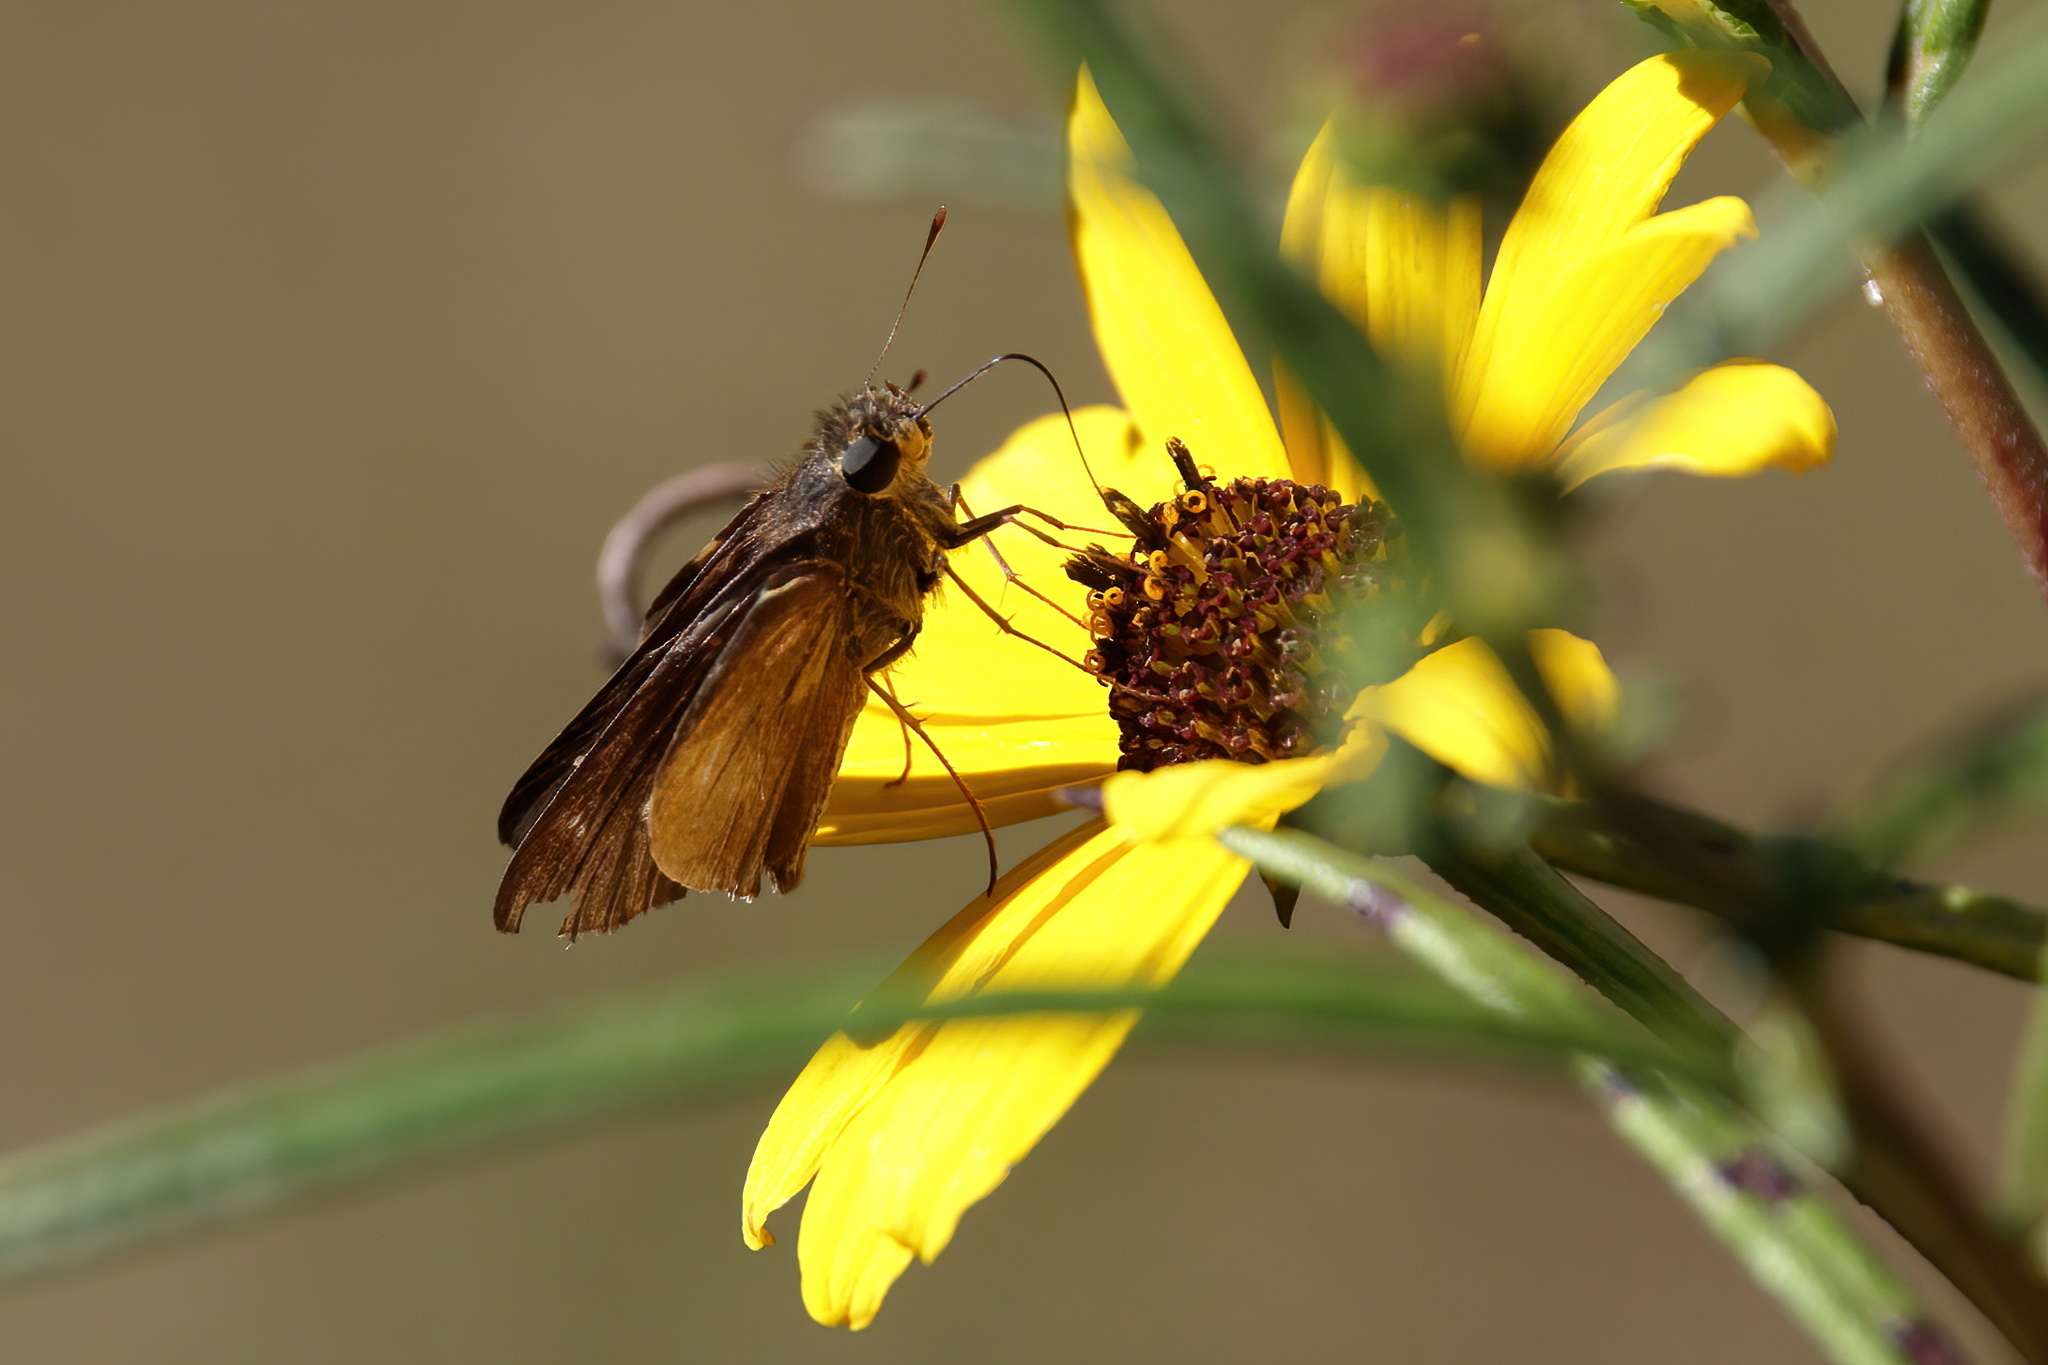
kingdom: Animalia
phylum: Arthropoda
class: Insecta
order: Lepidoptera
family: Hesperiidae
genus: Panoquina
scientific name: Panoquina ocola
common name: Ocola skipper
